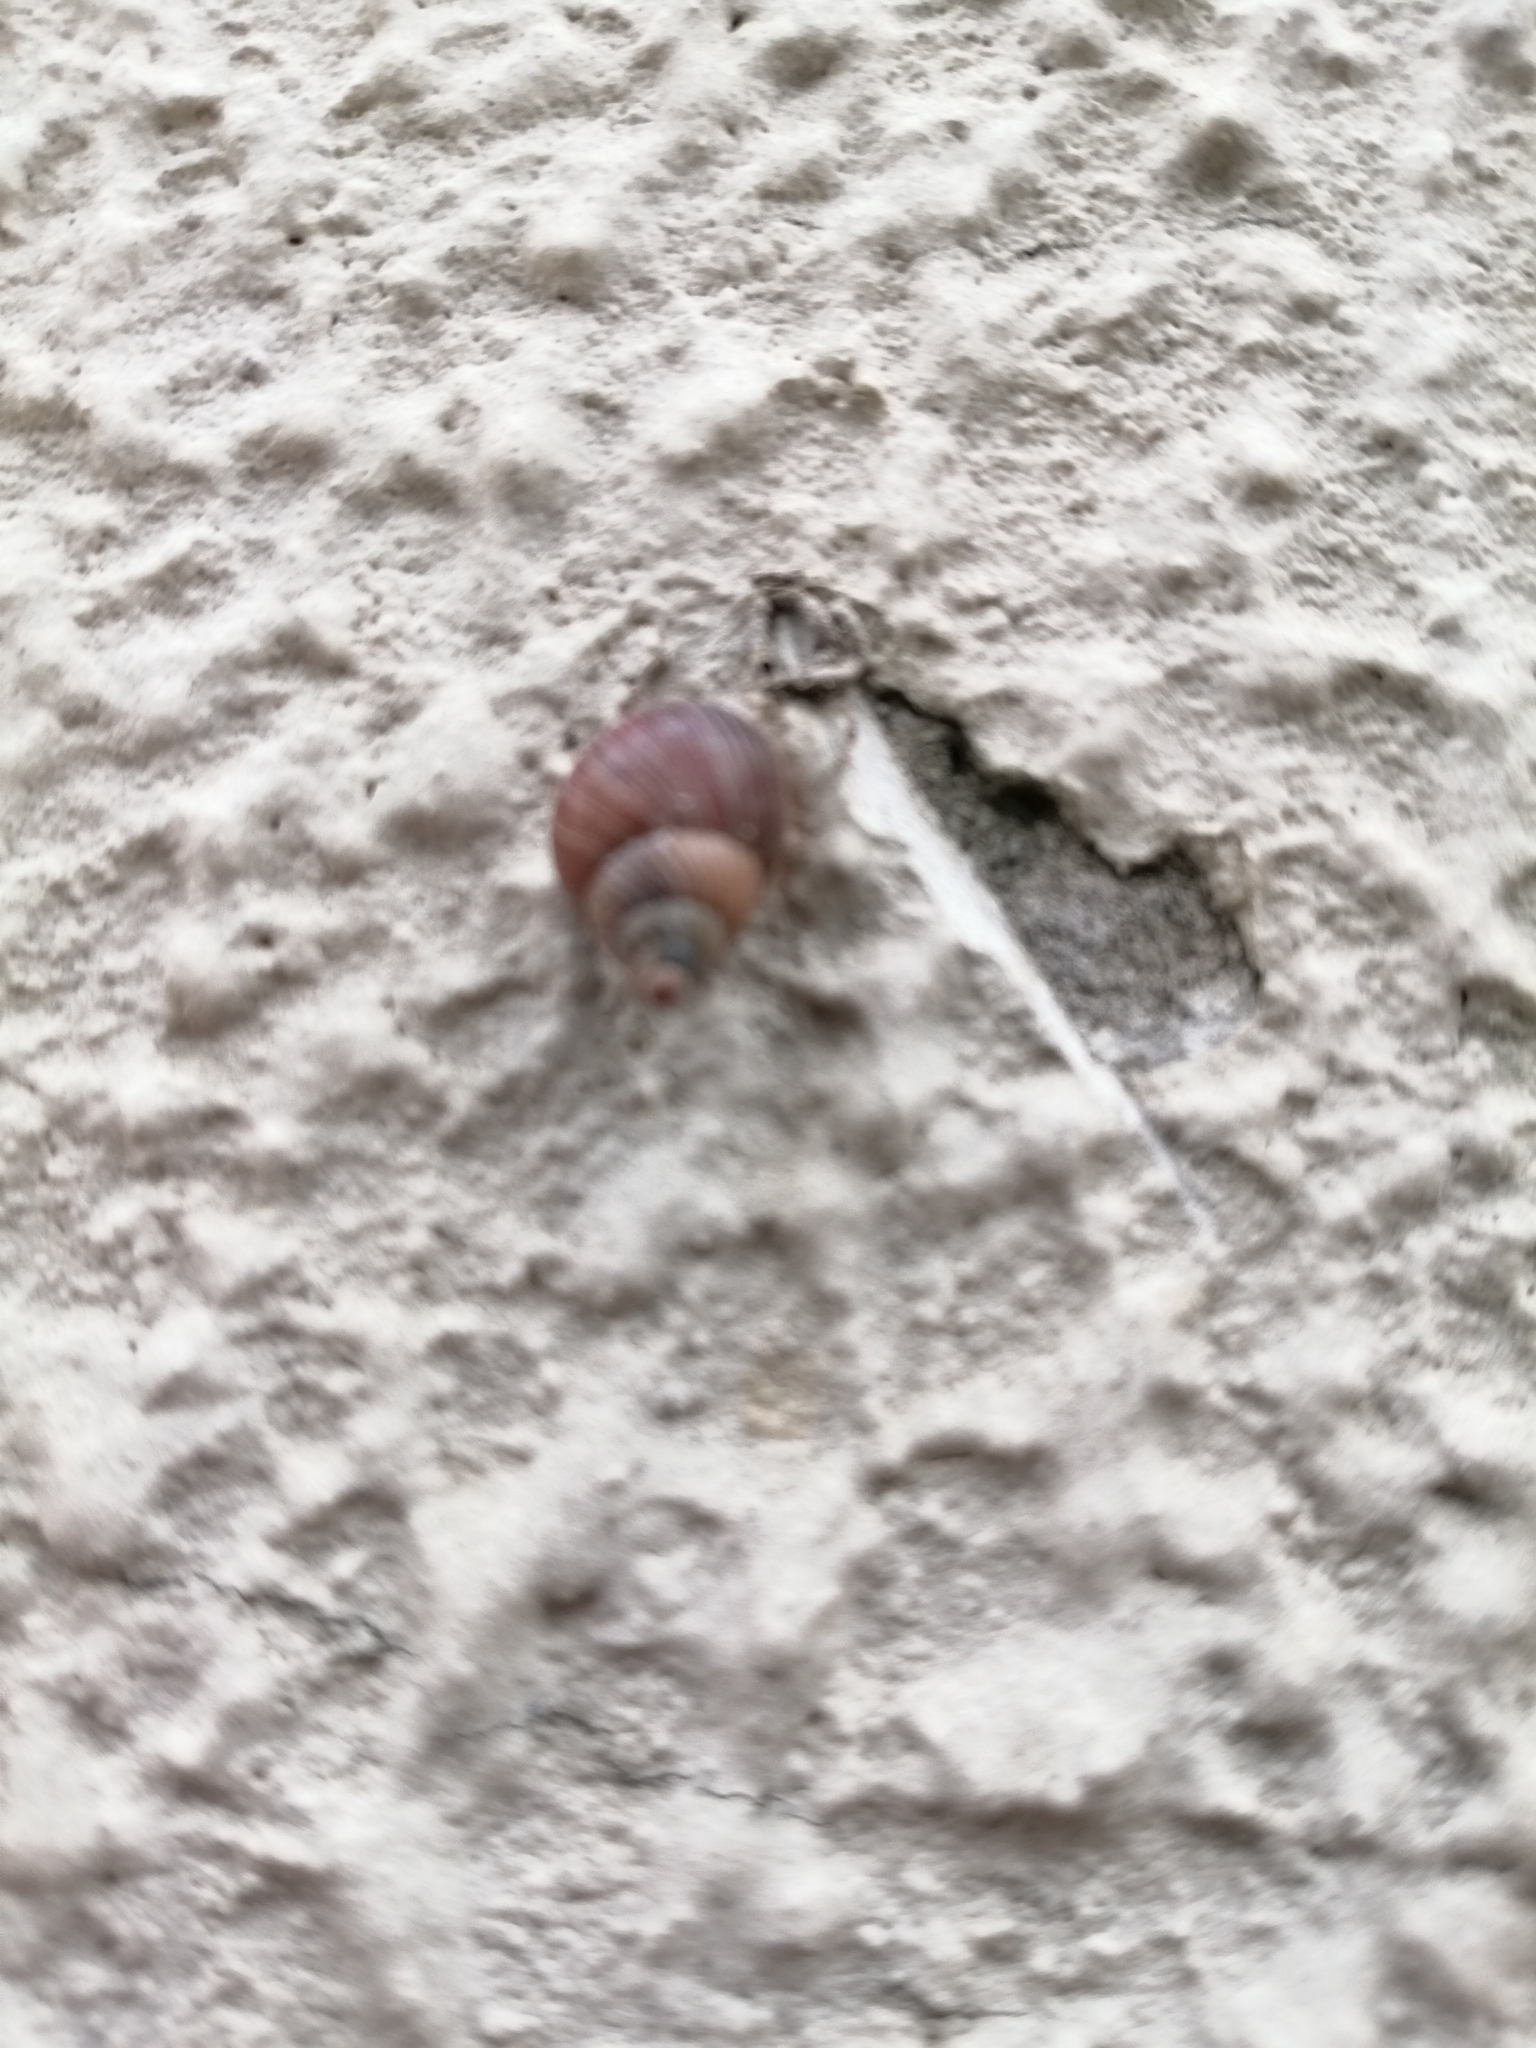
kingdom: Animalia
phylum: Mollusca
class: Gastropoda
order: Stylommatophora
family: Bulimulidae
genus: Naesiotus
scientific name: Naesiotus quitensis
